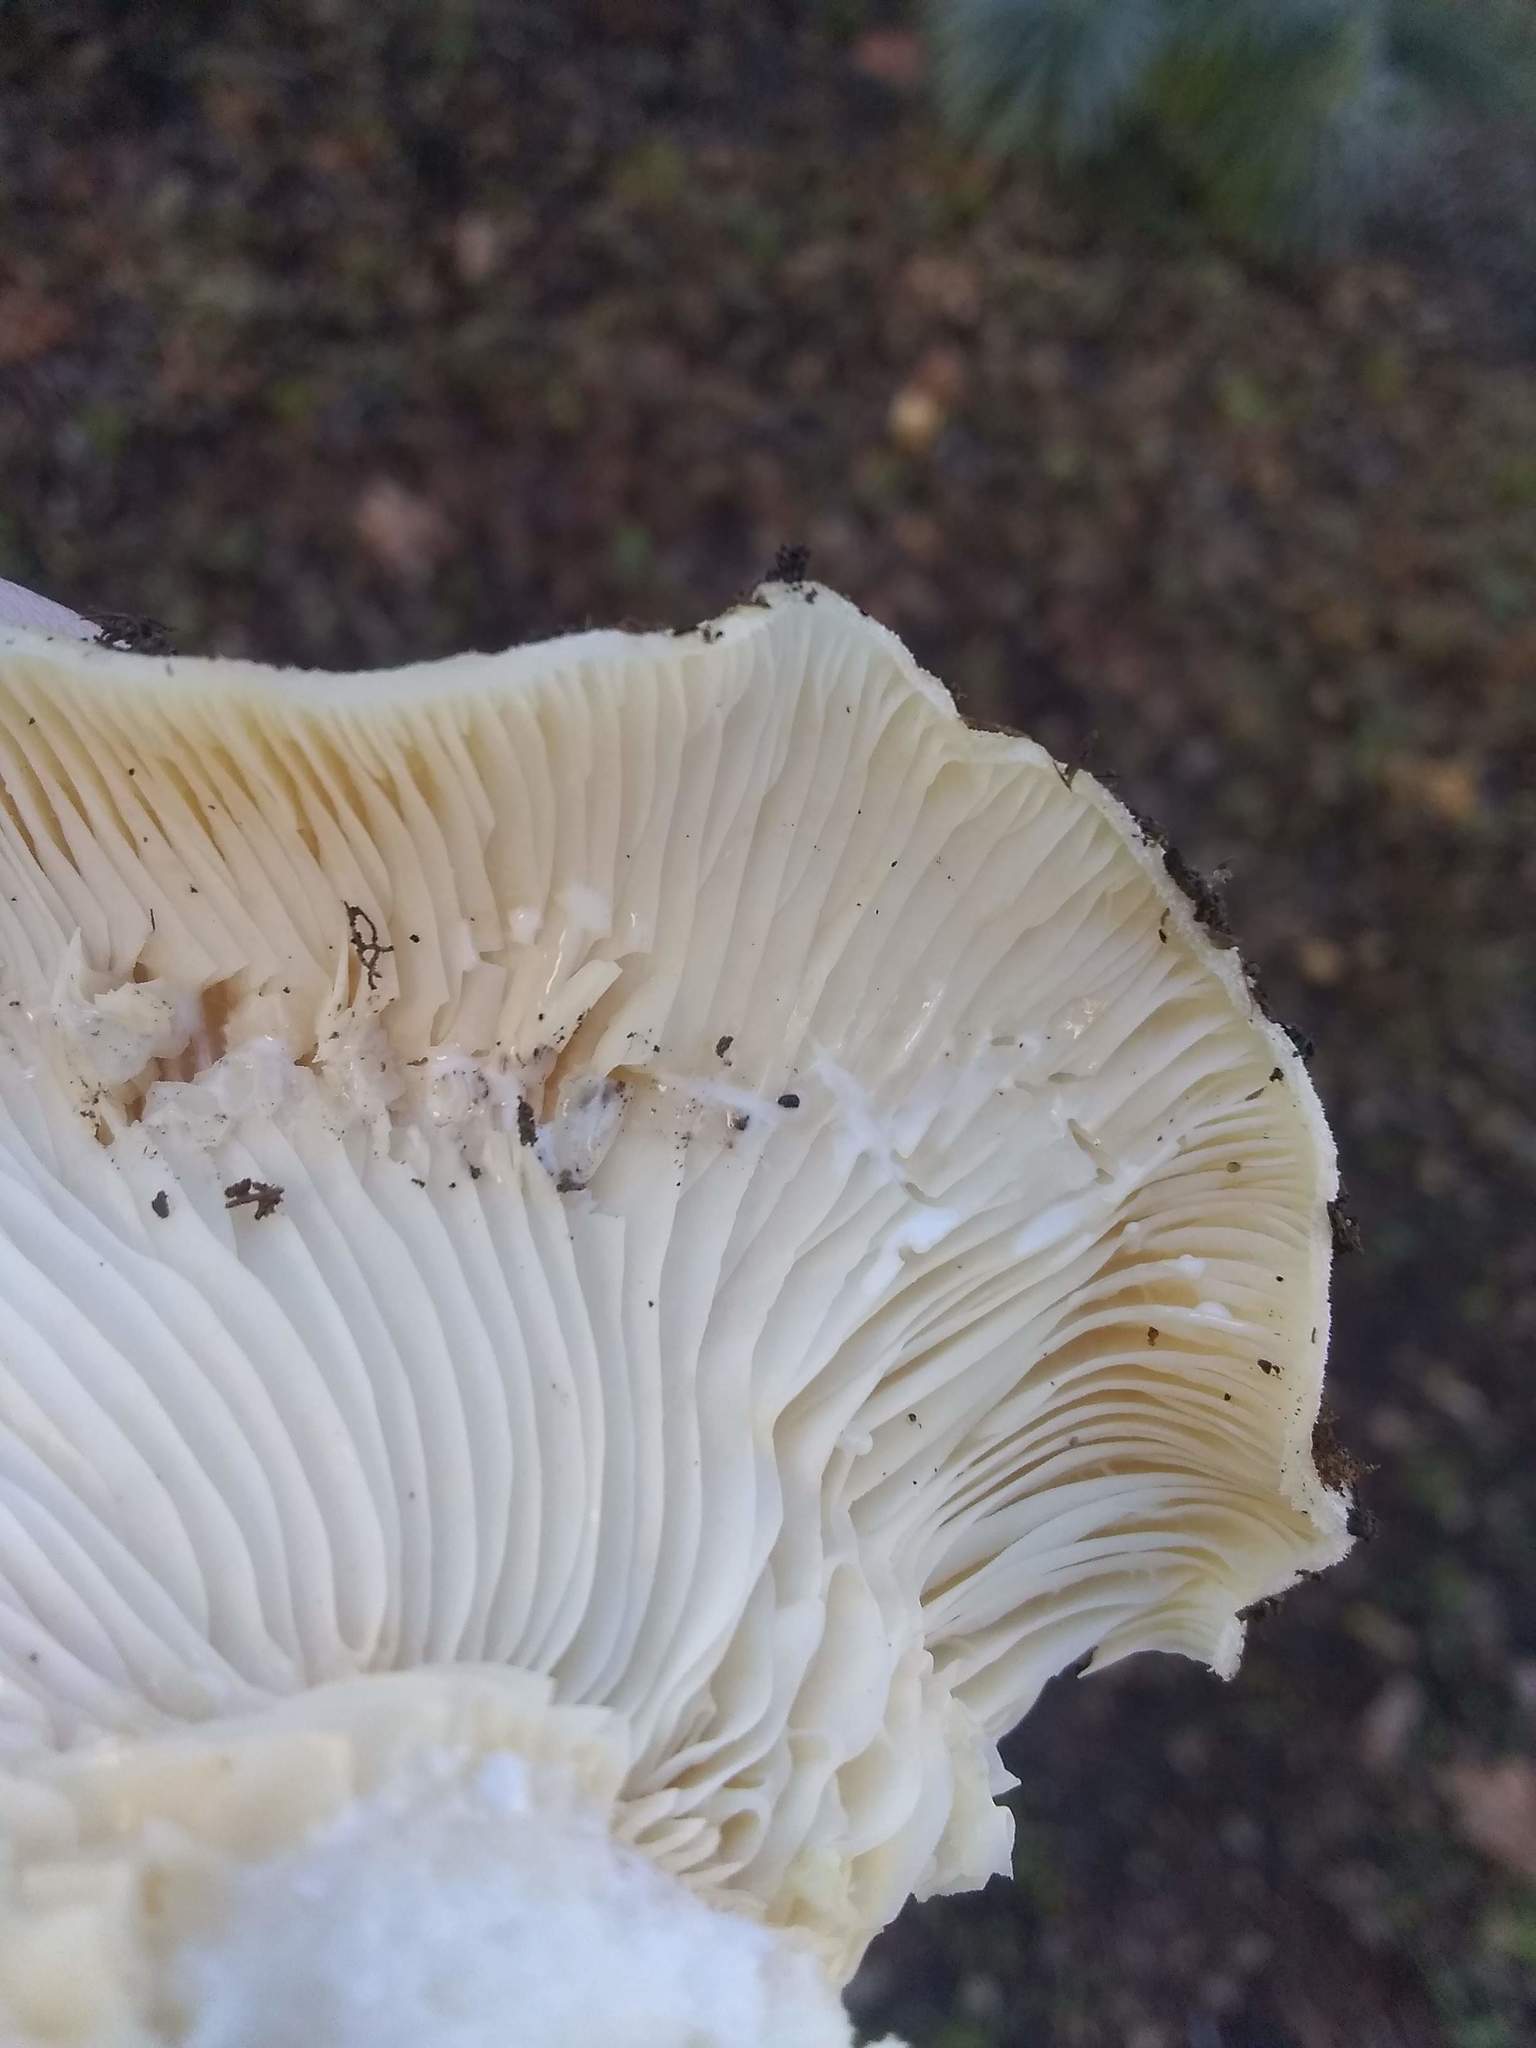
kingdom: Fungi
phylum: Basidiomycota
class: Agaricomycetes
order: Russulales
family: Russulaceae
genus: Lactarius
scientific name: Lactarius alnicola
